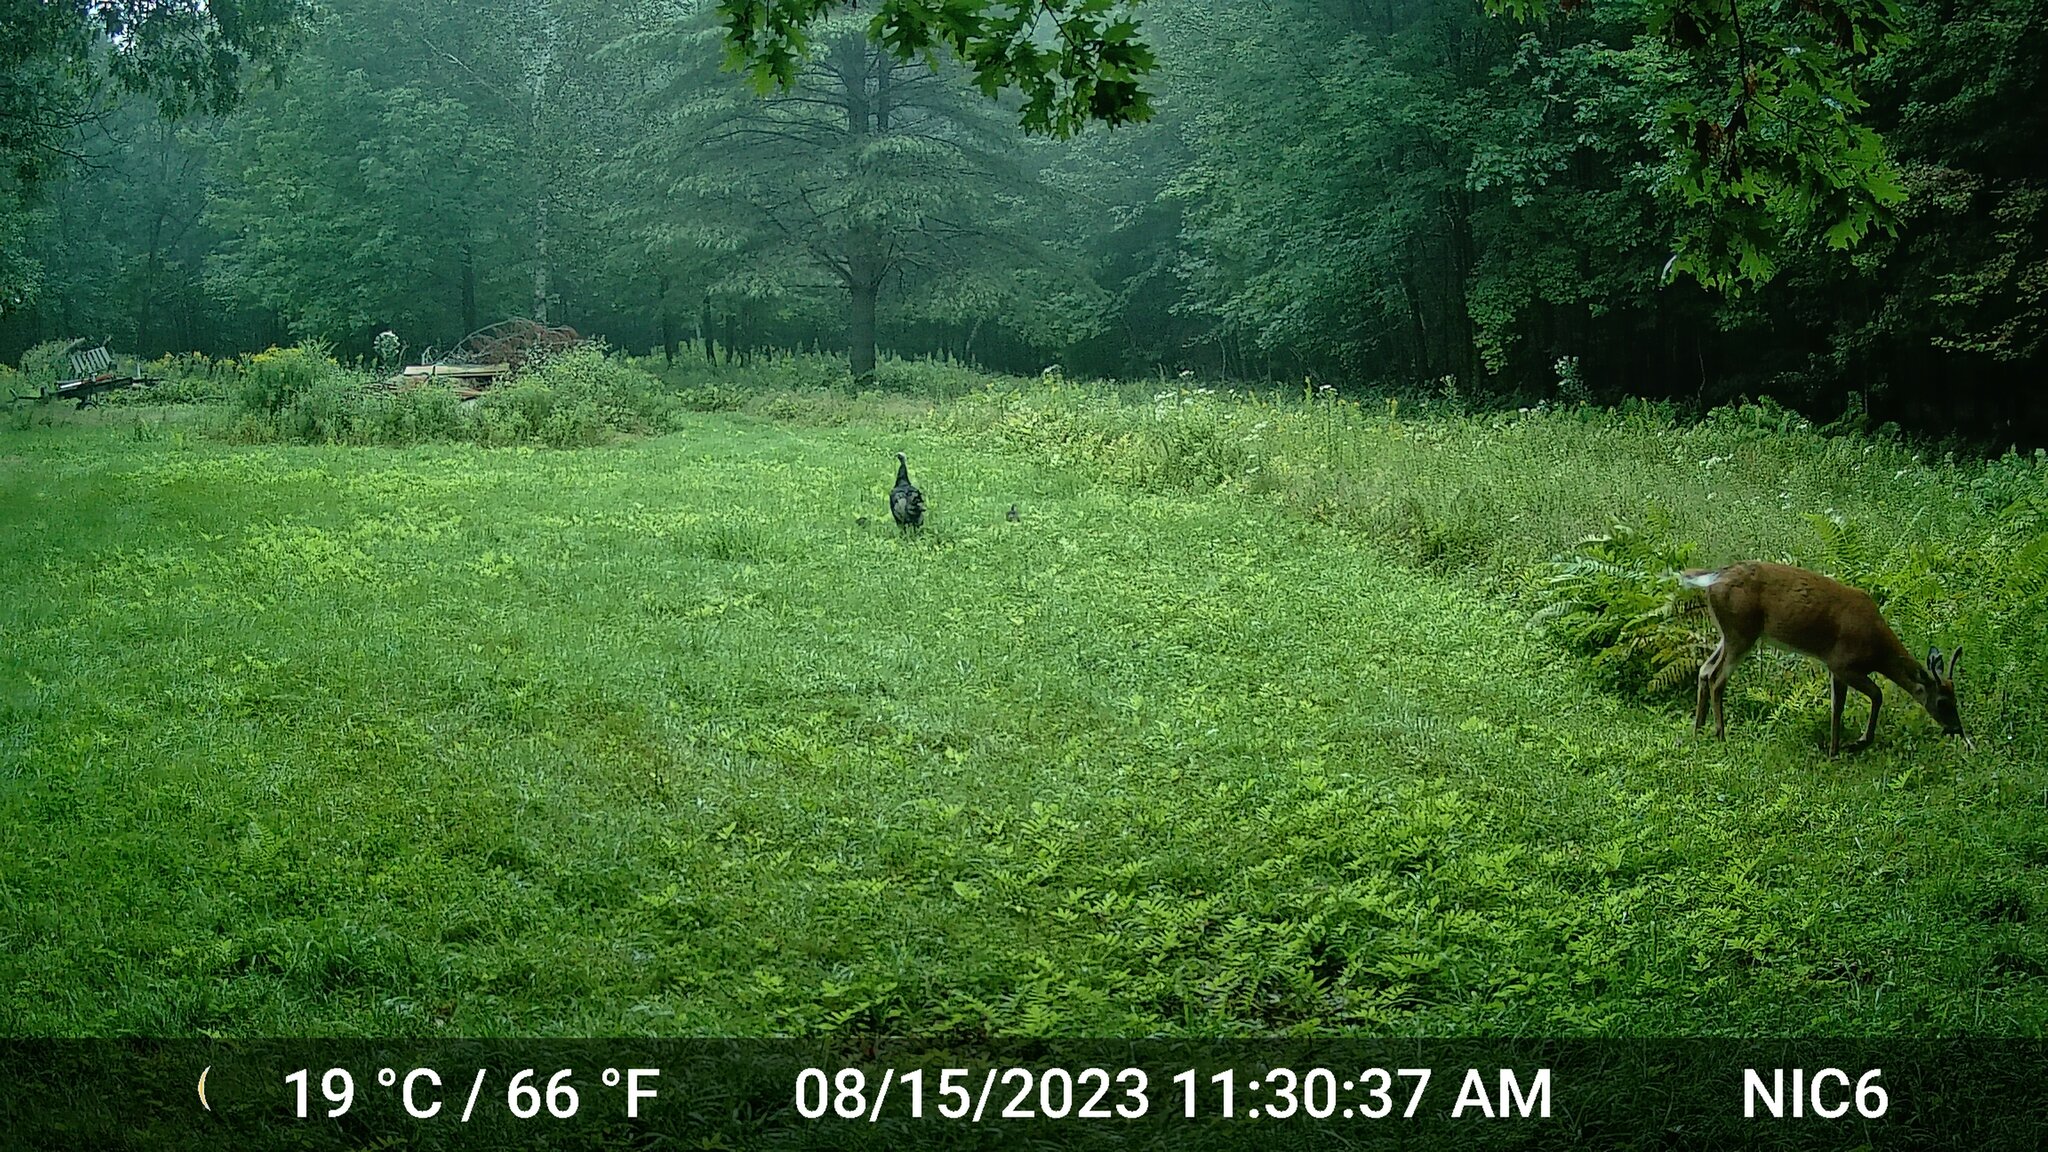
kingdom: Animalia
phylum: Chordata
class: Aves
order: Galliformes
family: Phasianidae
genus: Meleagris
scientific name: Meleagris gallopavo
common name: Wild turkey
